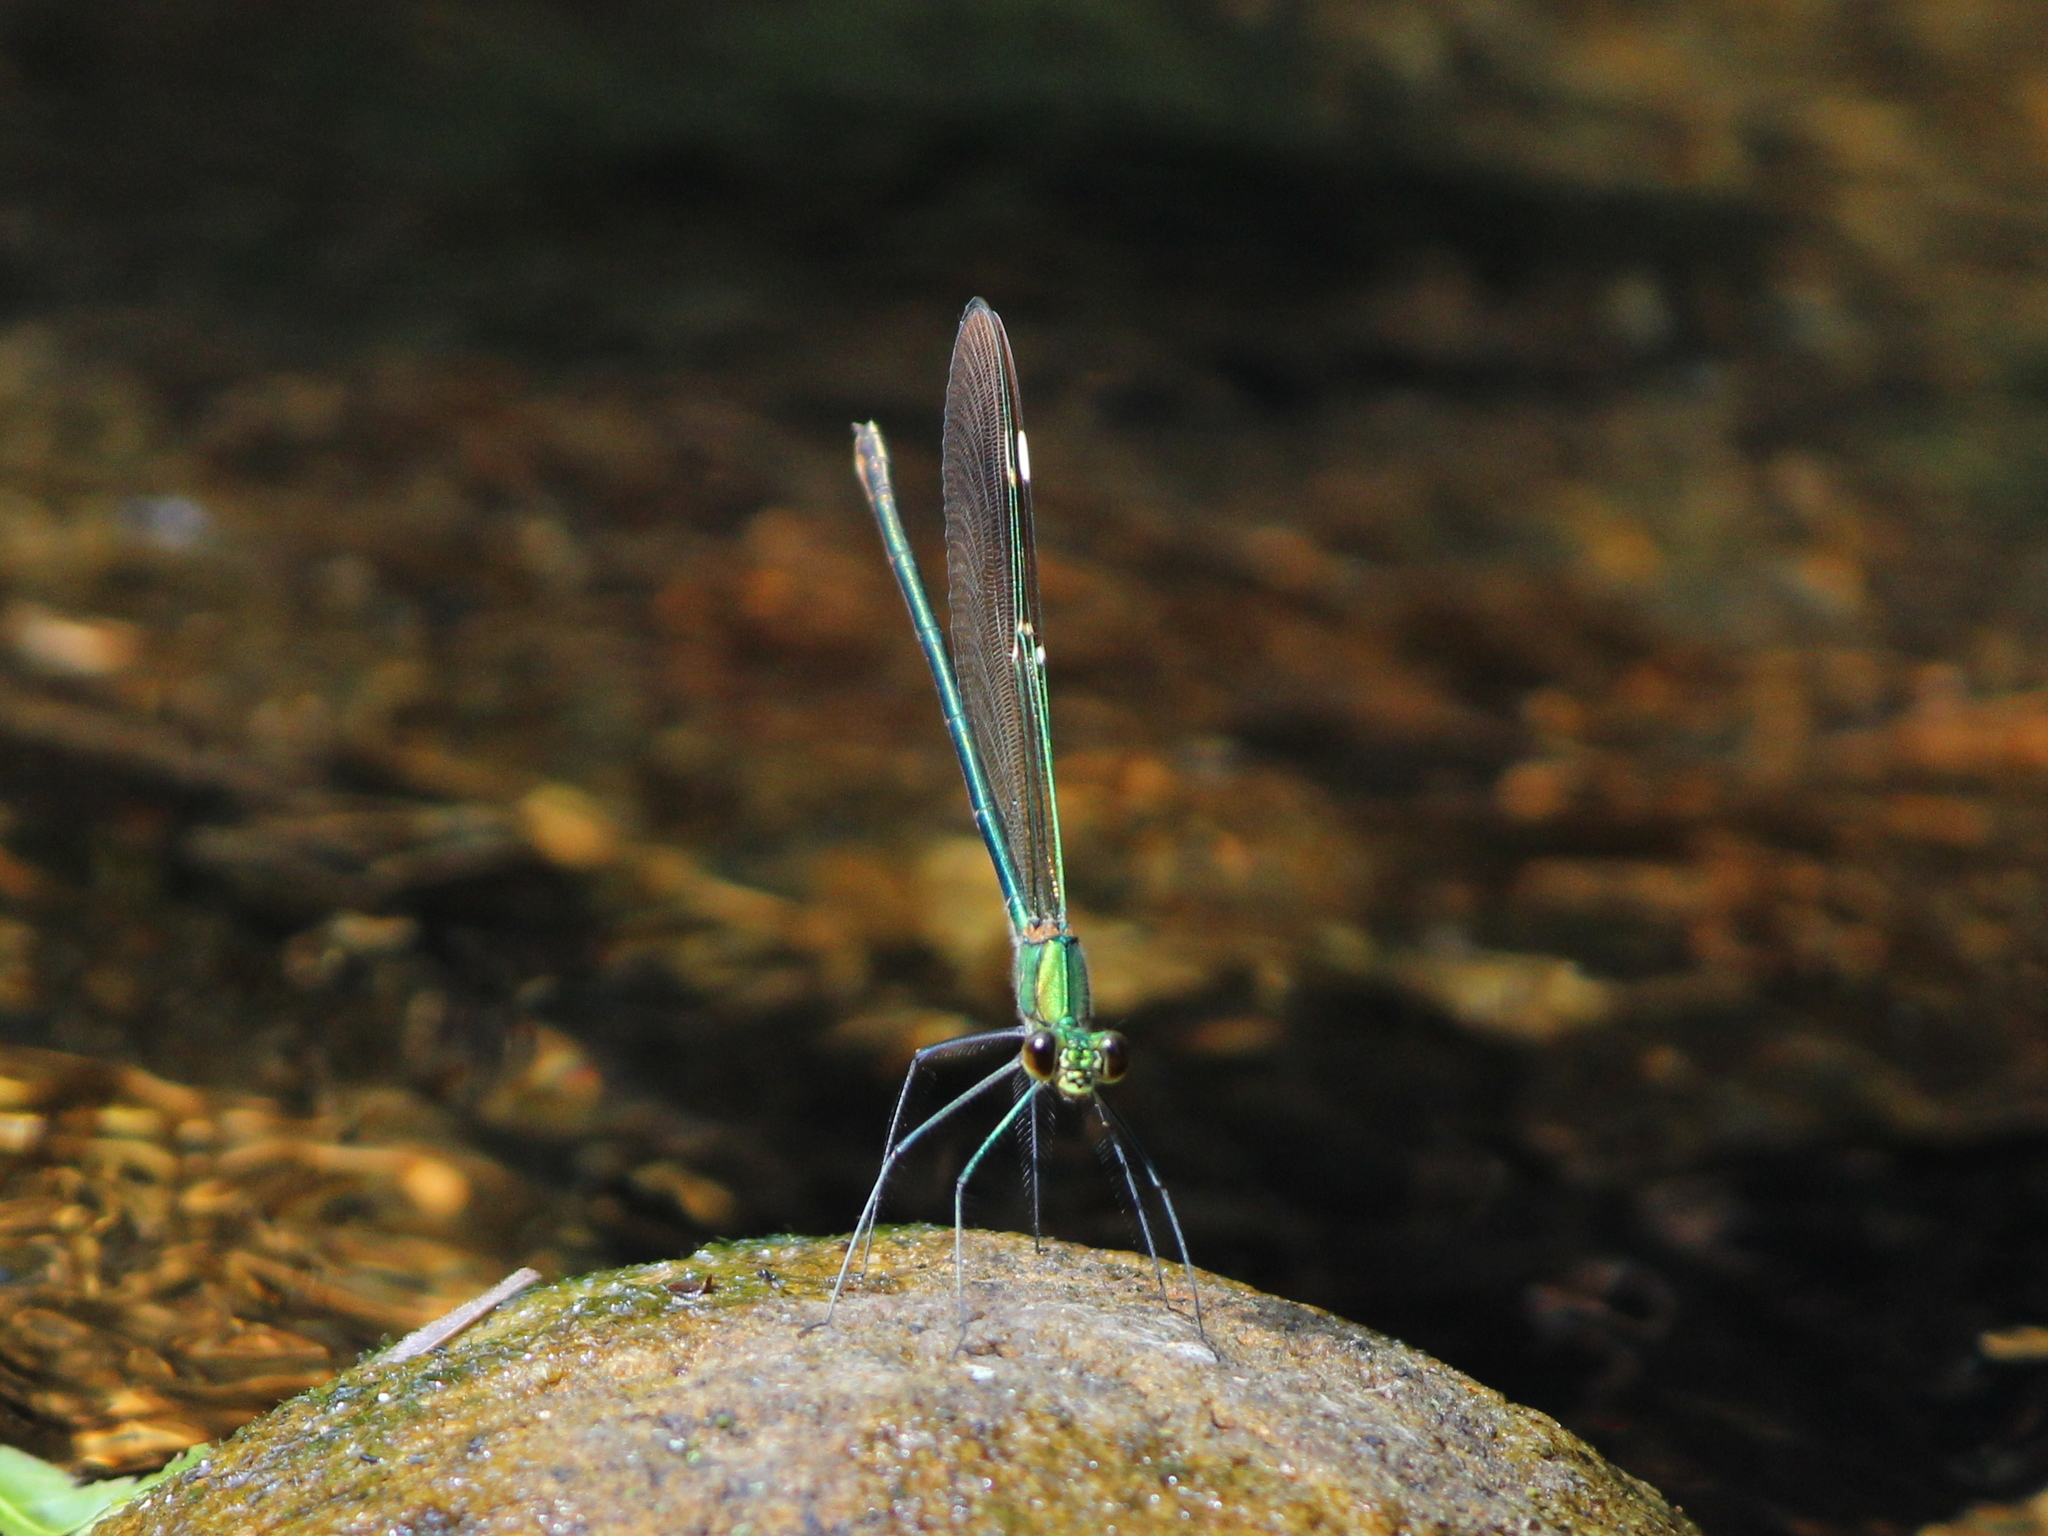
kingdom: Animalia
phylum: Arthropoda
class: Insecta
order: Odonata
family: Calopterygidae
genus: Neurobasis
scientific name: Neurobasis chinensis
